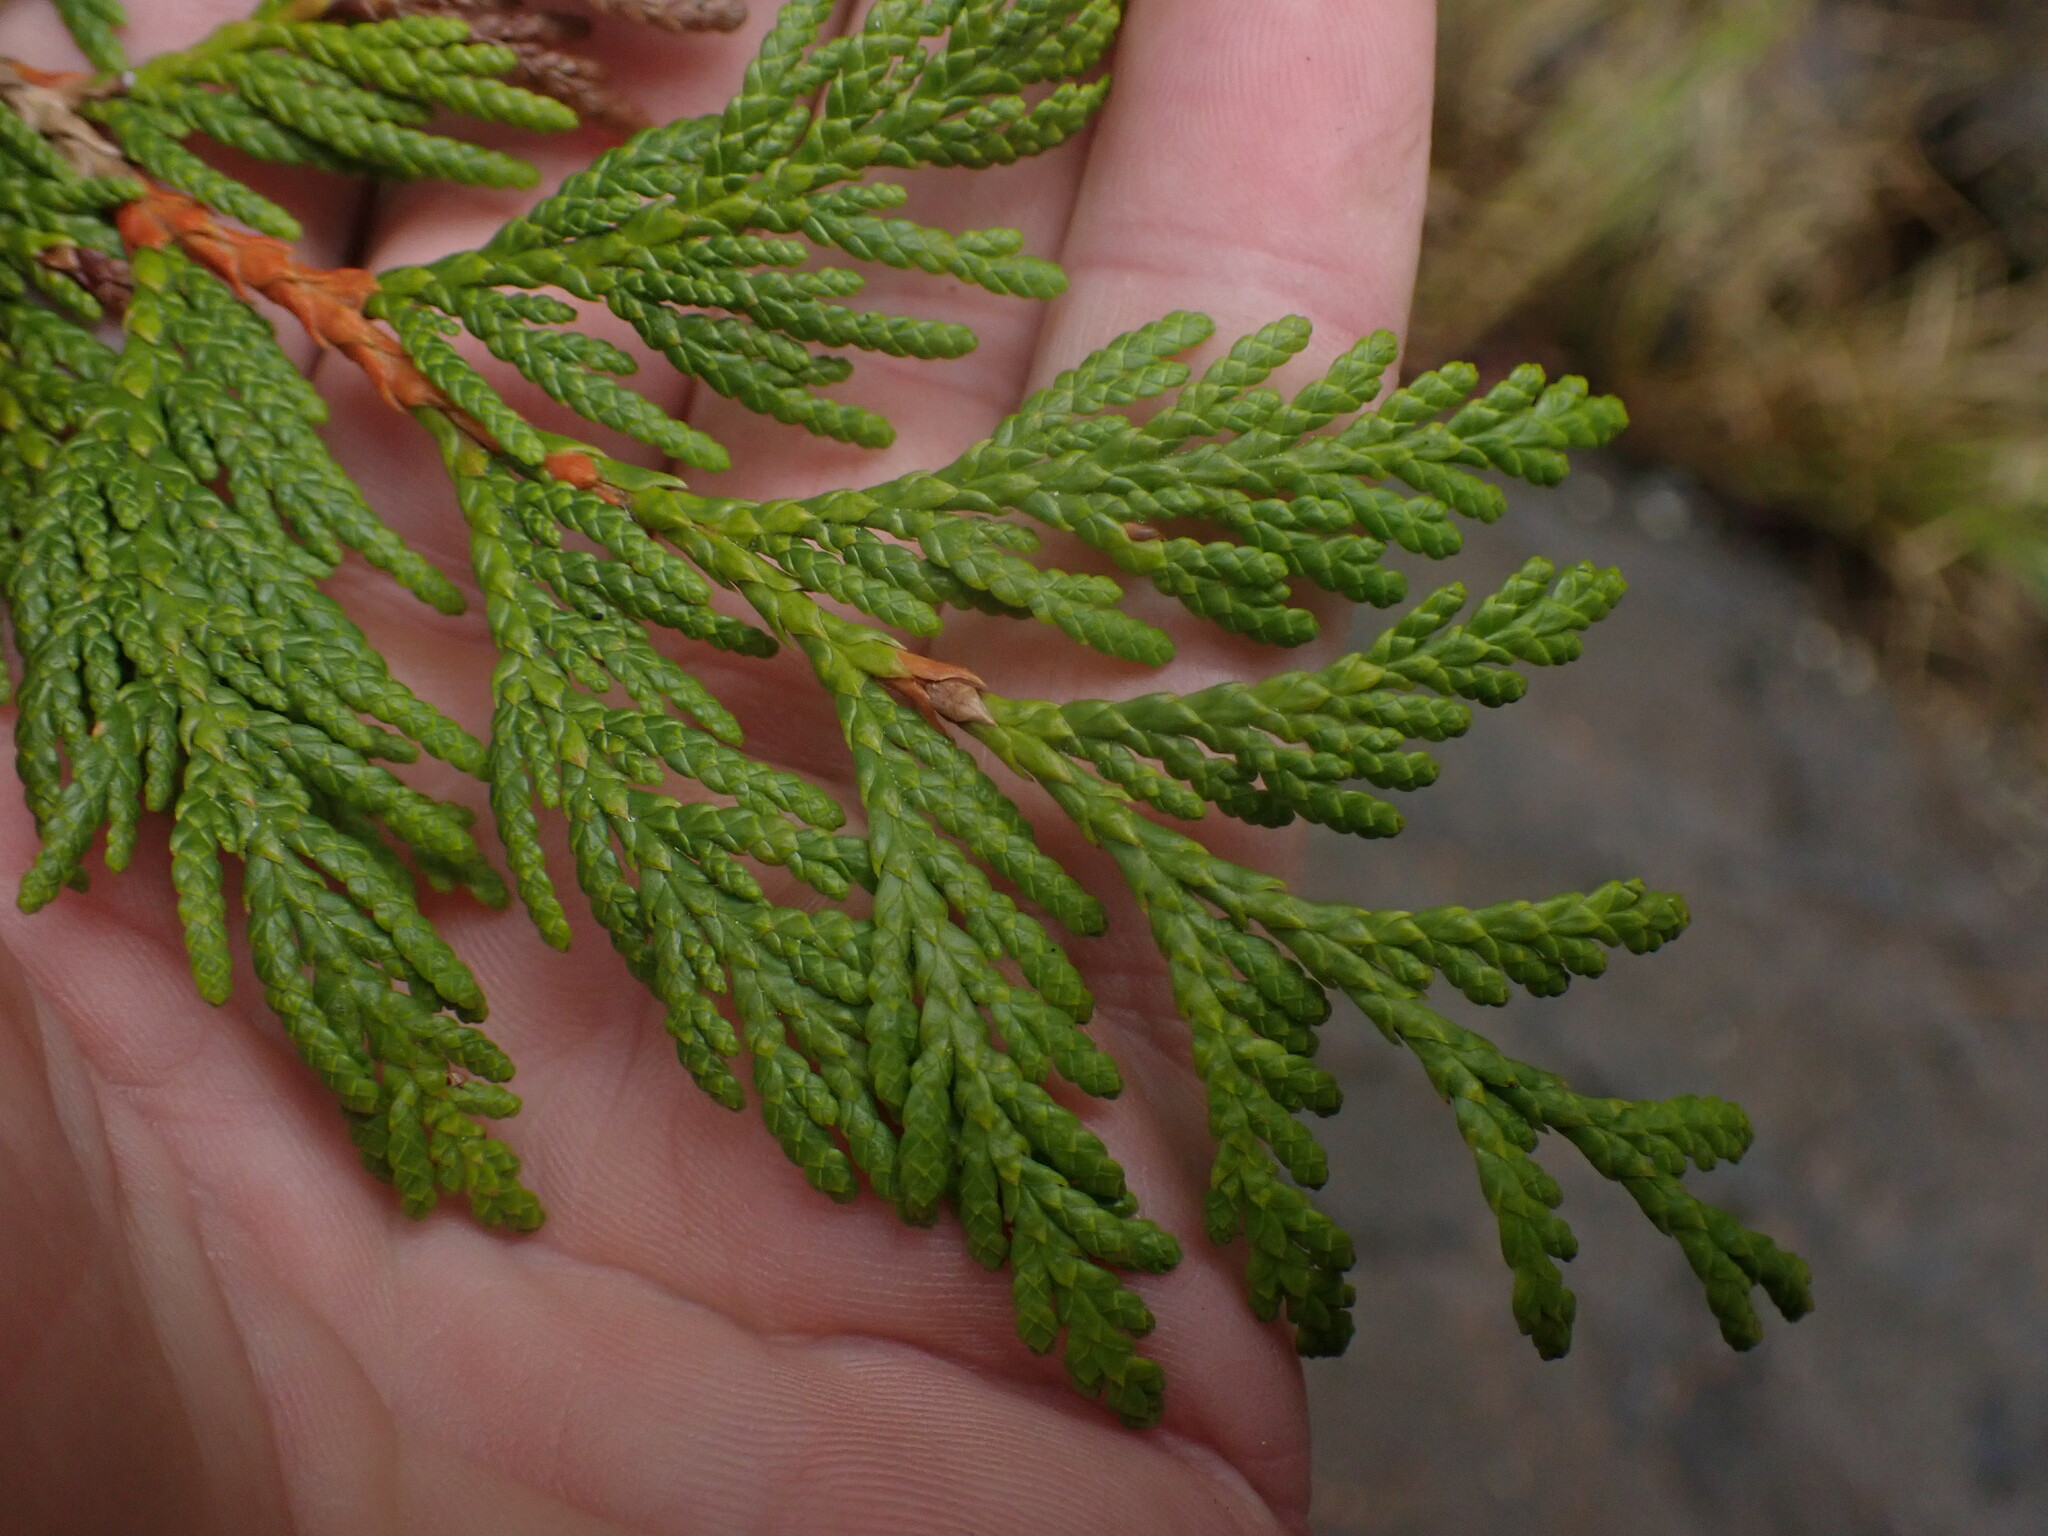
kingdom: Plantae
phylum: Tracheophyta
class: Pinopsida
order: Pinales
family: Cupressaceae
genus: Thuja
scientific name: Thuja plicata
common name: Western red-cedar
